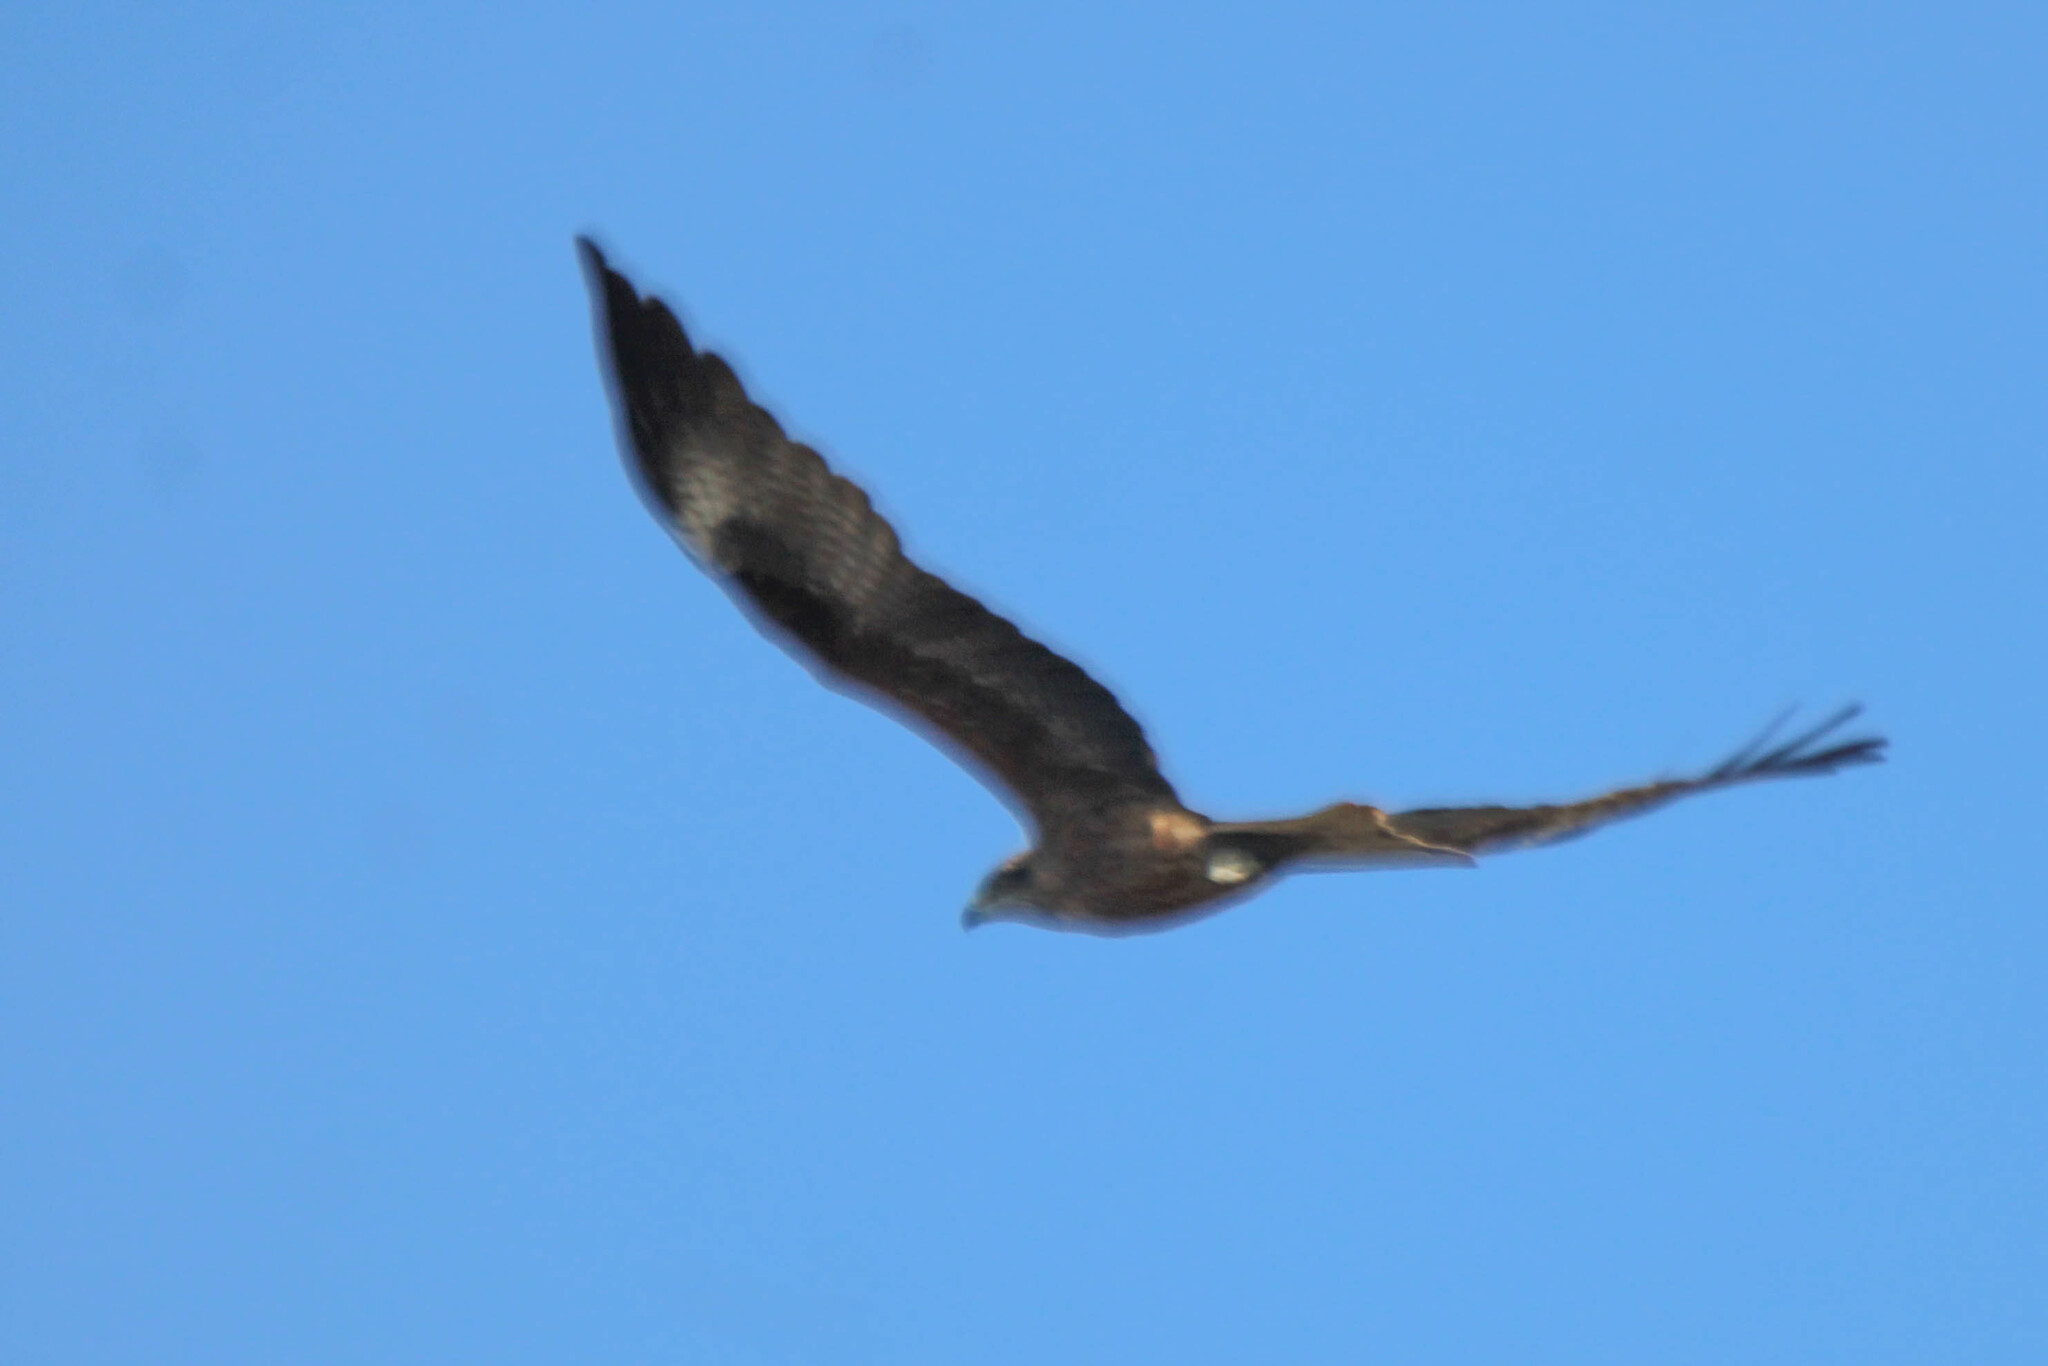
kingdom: Animalia
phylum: Chordata
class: Aves
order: Accipitriformes
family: Accipitridae
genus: Milvus
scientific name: Milvus migrans
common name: Black kite
